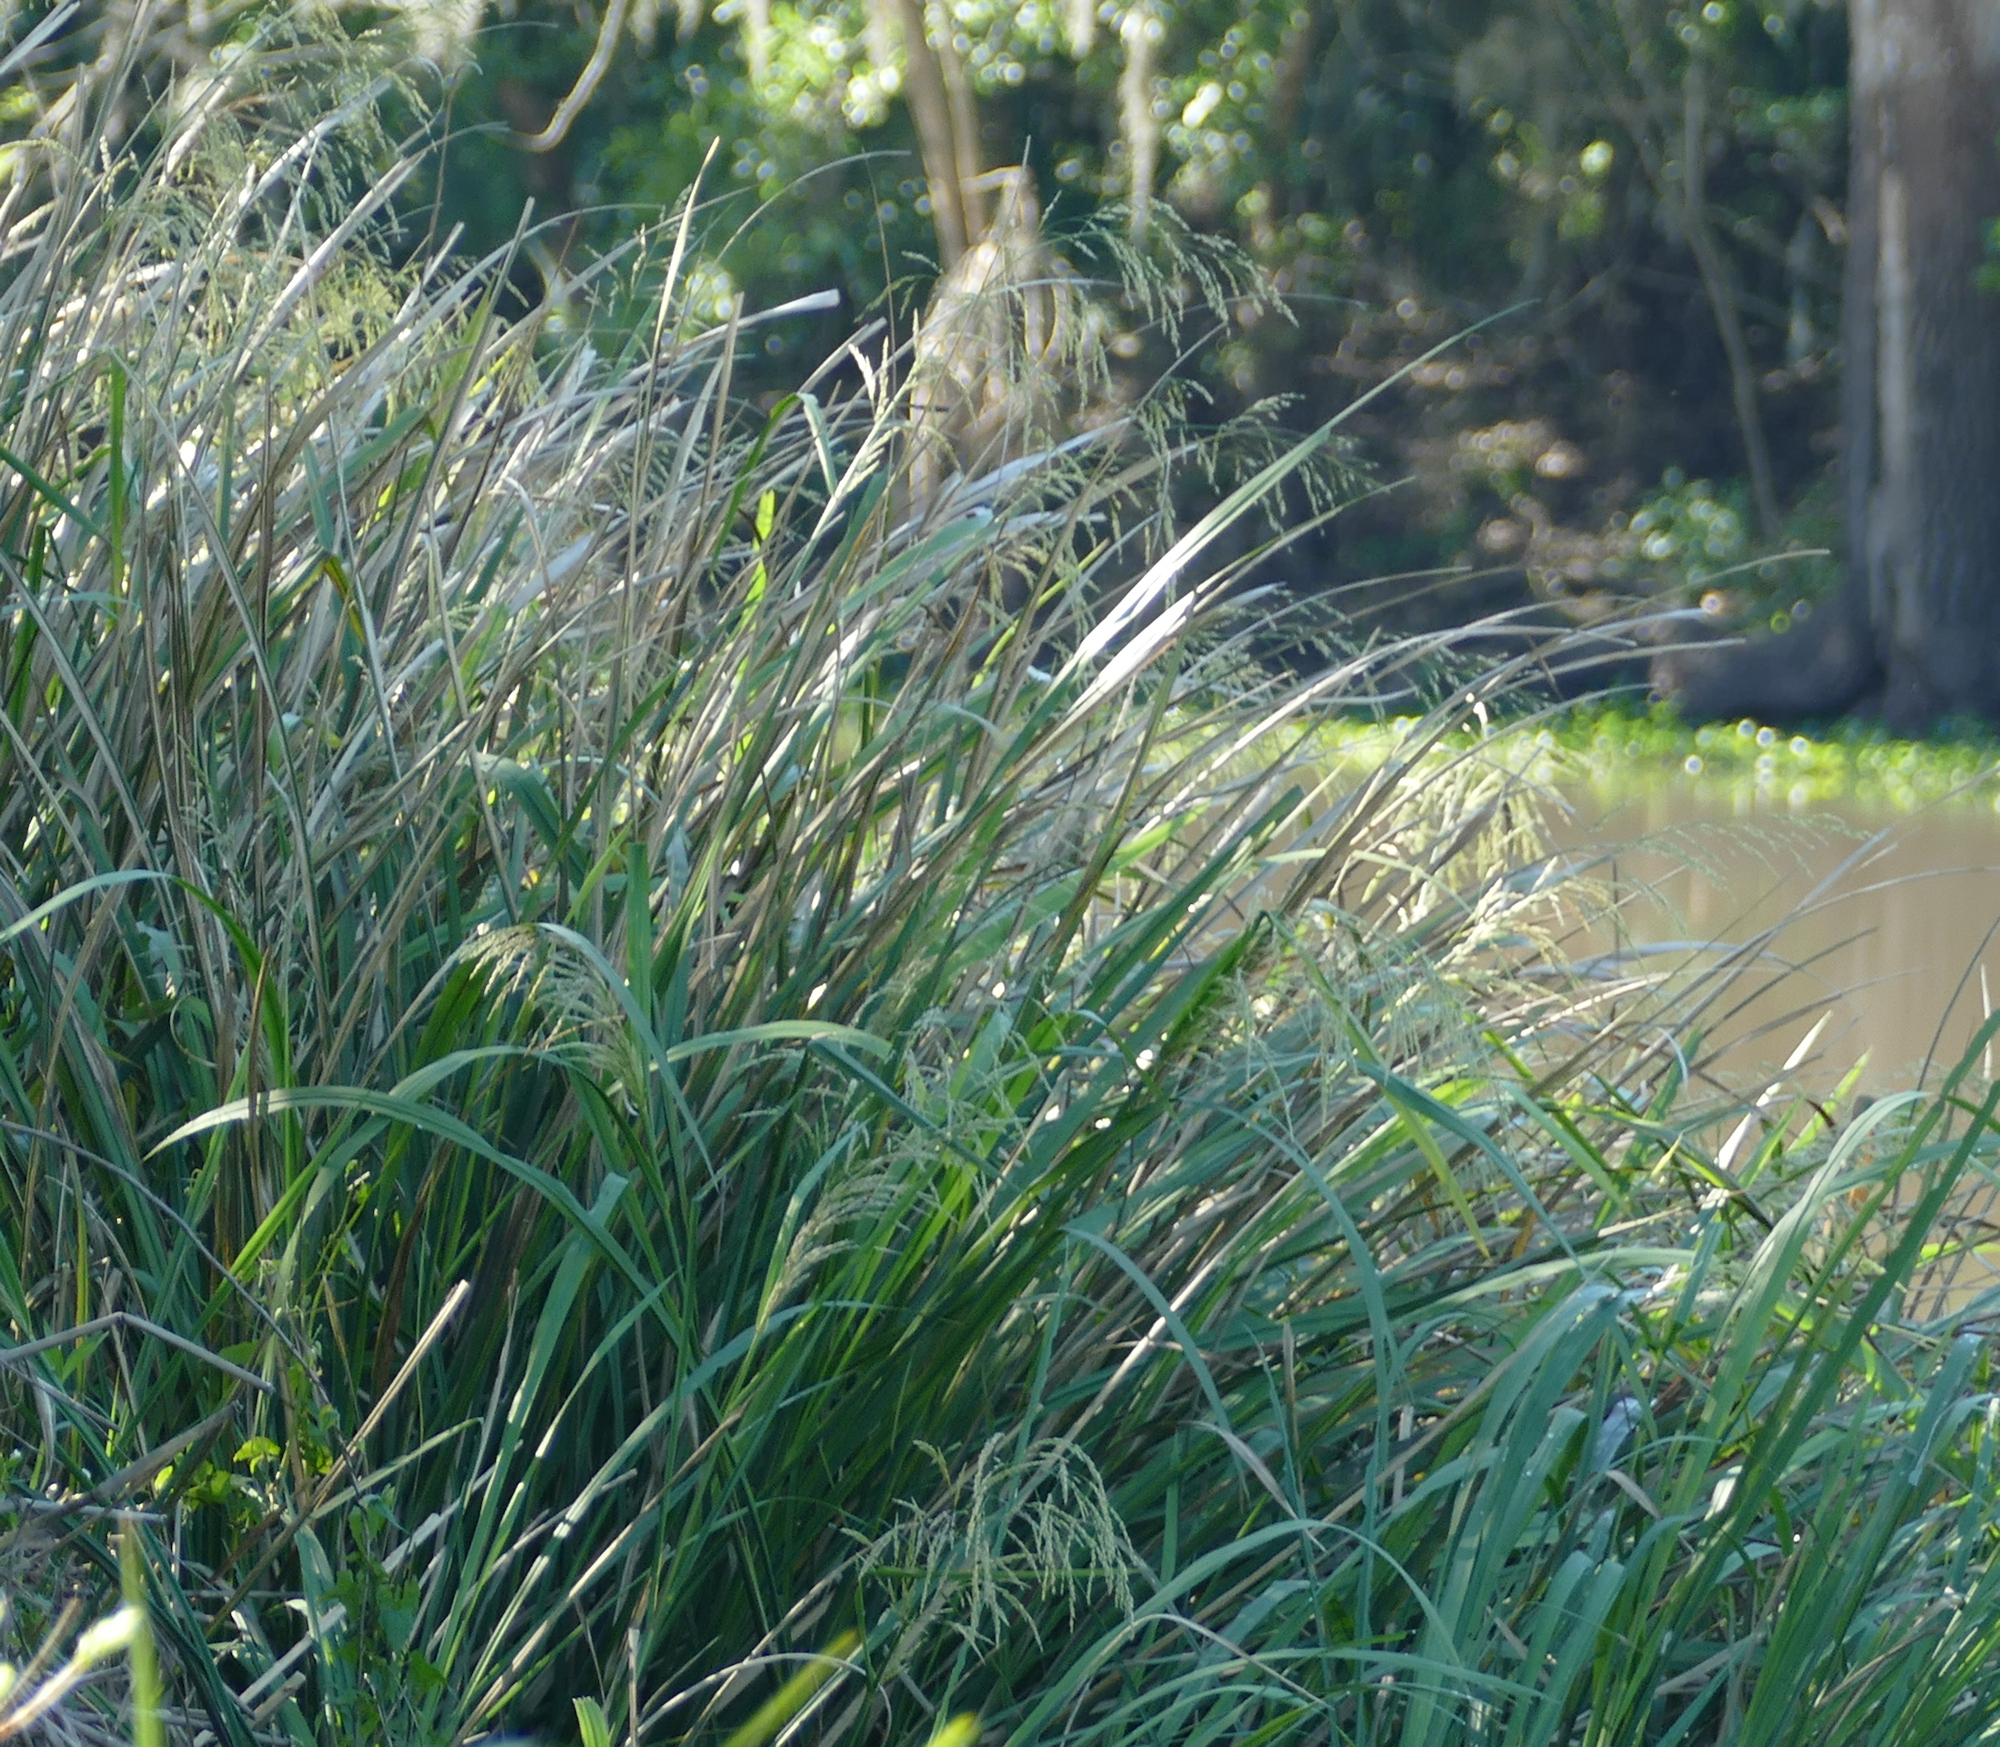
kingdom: Plantae
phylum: Tracheophyta
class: Liliopsida
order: Poales
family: Poaceae
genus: Zizaniopsis
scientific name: Zizaniopsis miliacea
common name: Giant-cutgrass
